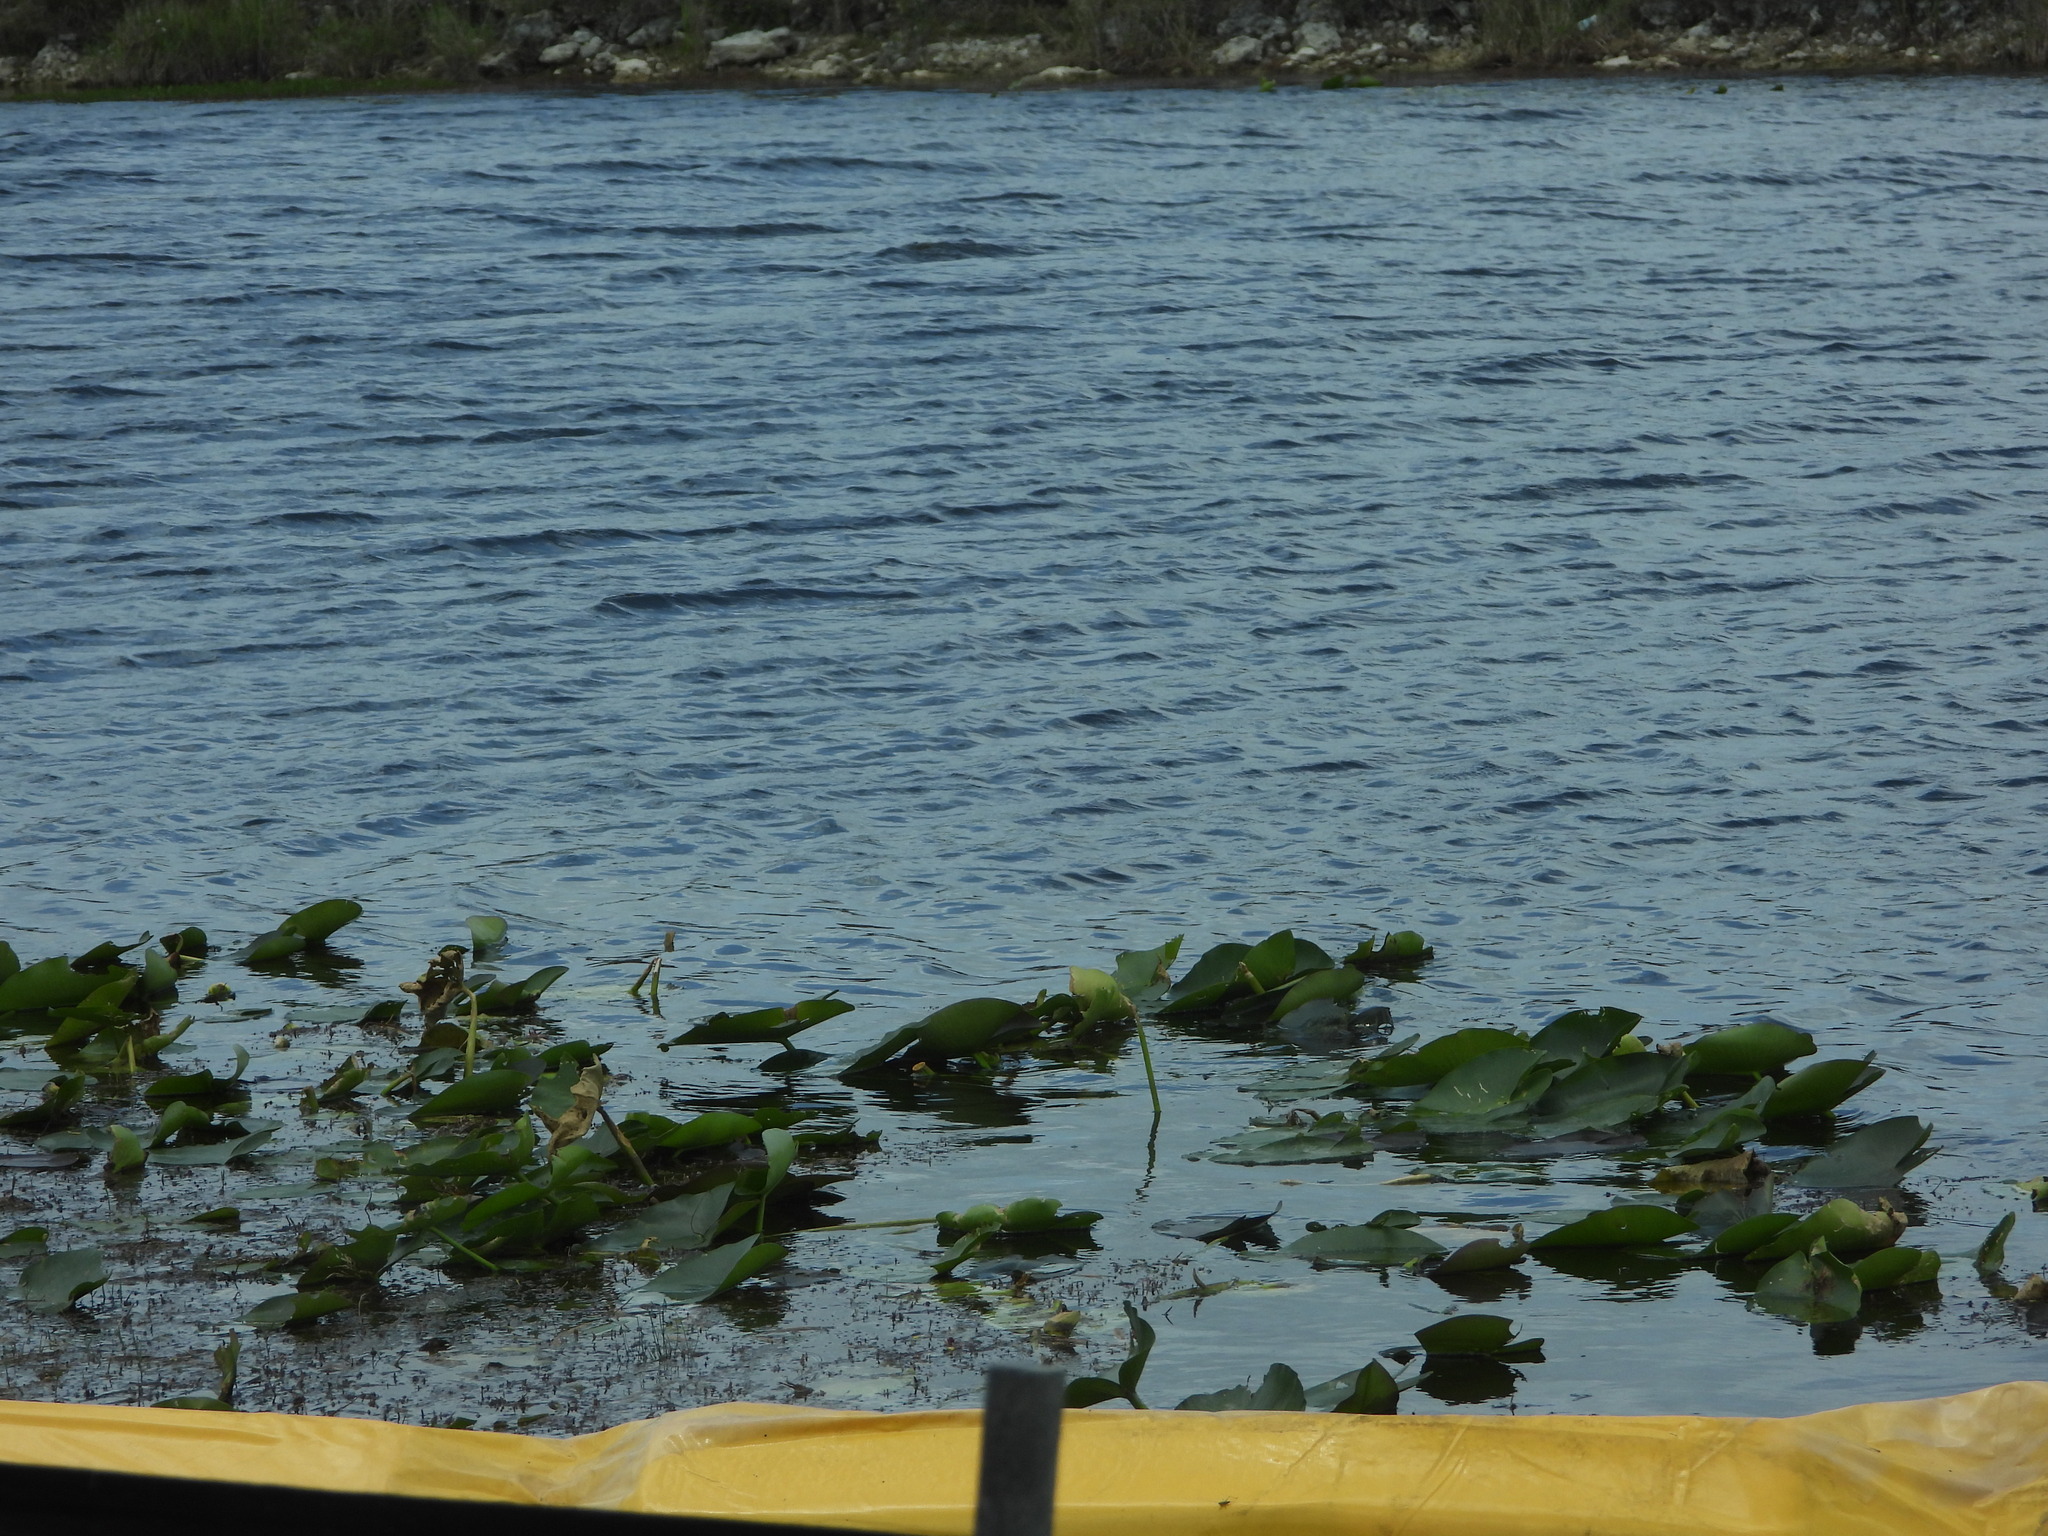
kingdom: Plantae
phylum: Tracheophyta
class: Magnoliopsida
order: Nymphaeales
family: Nymphaeaceae
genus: Nuphar
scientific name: Nuphar advena
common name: Spatter-dock
